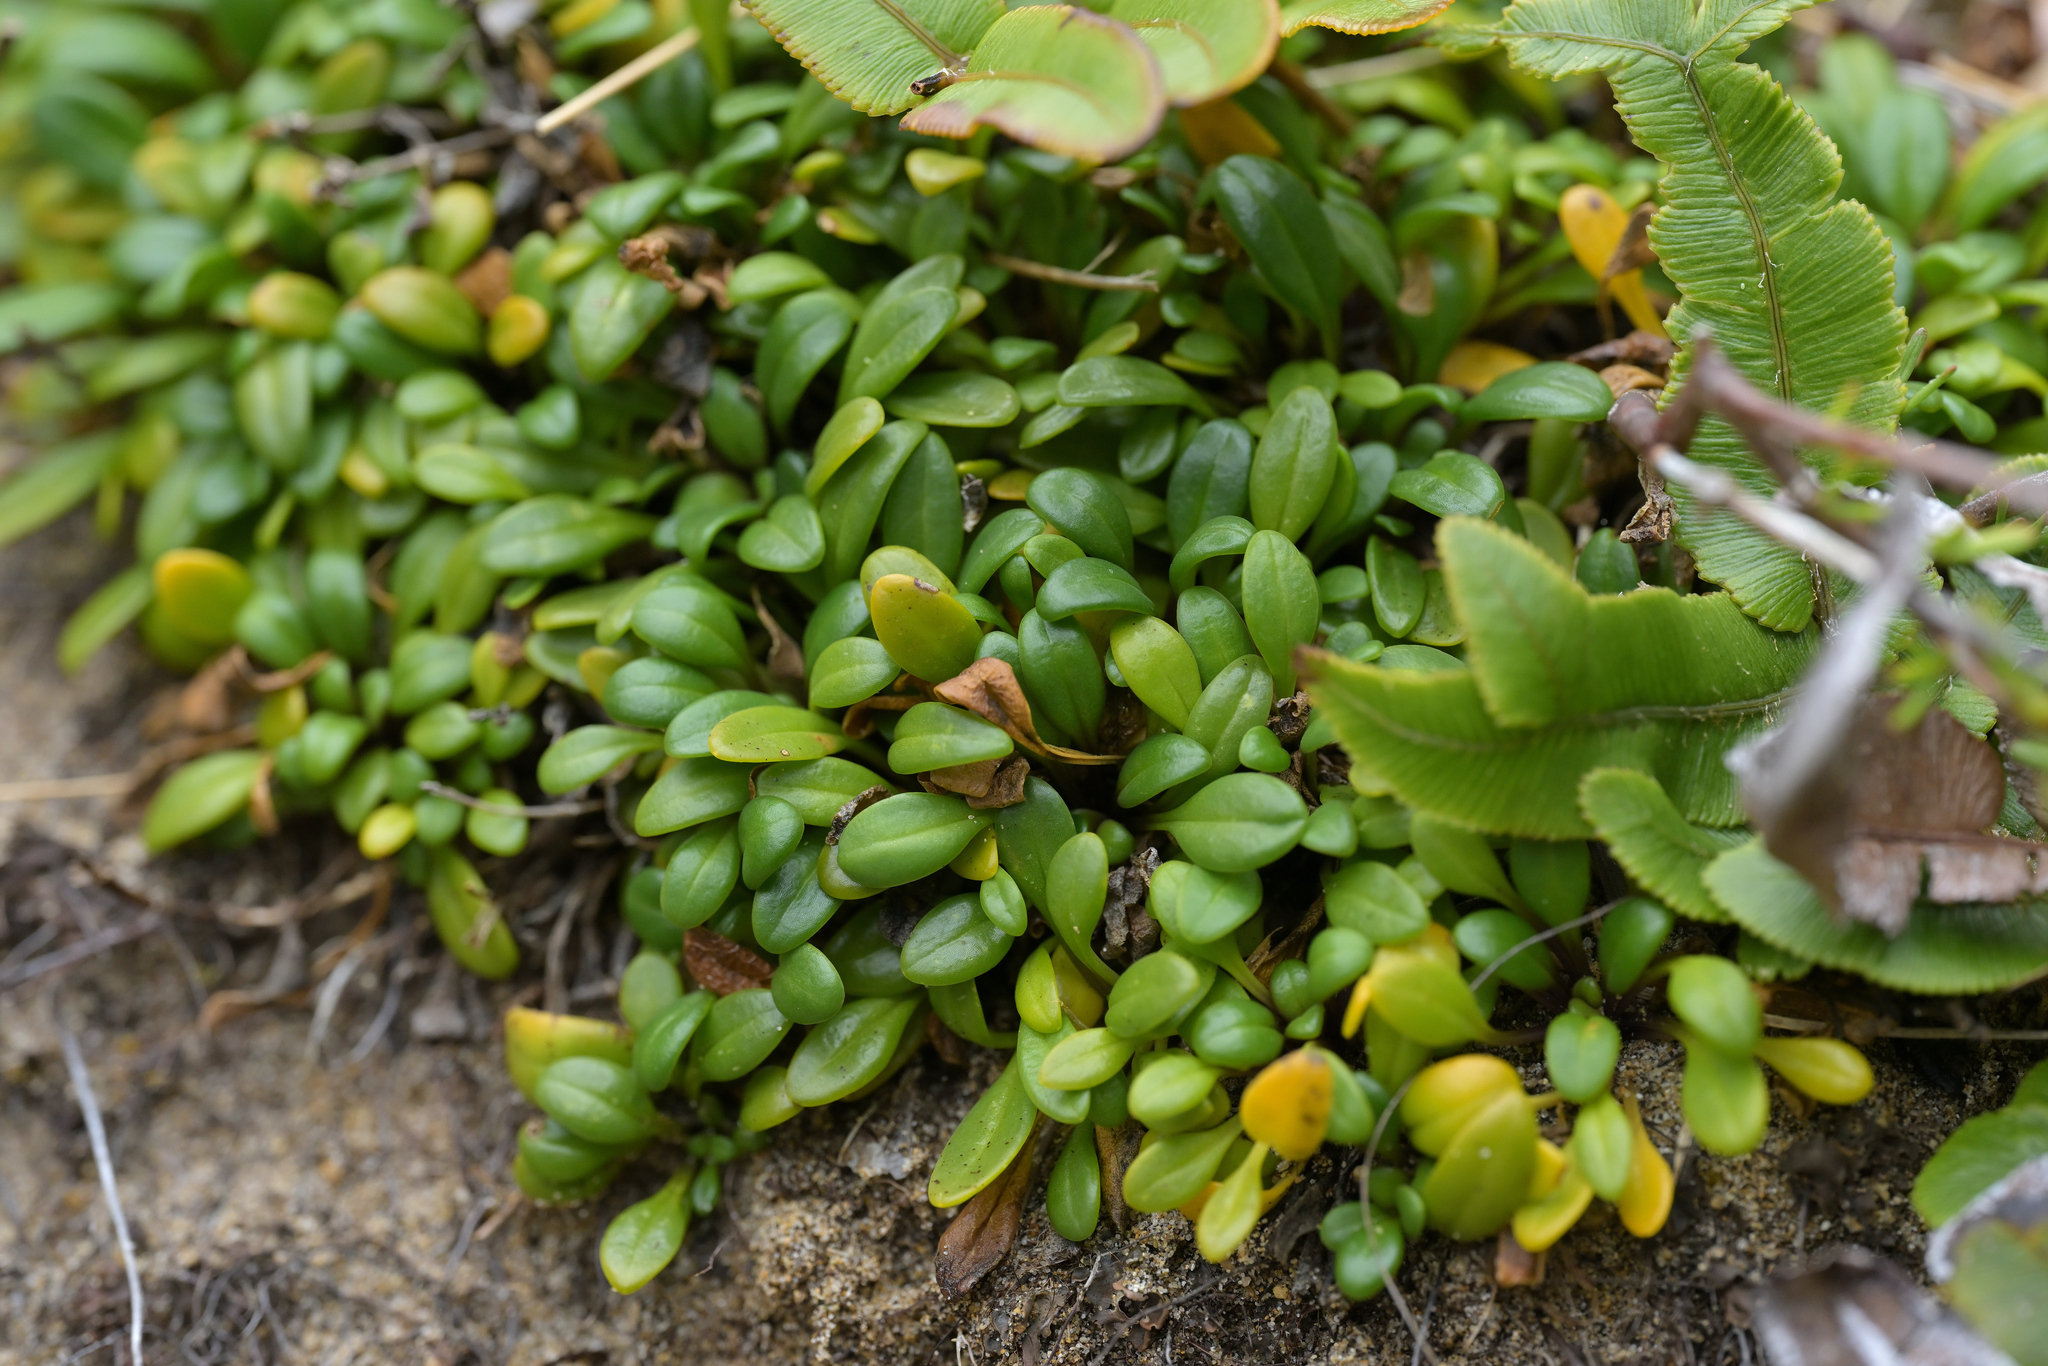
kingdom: Plantae
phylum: Tracheophyta
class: Magnoliopsida
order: Gentianales
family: Gentianaceae
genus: Gentianella
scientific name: Gentianella saxosa
